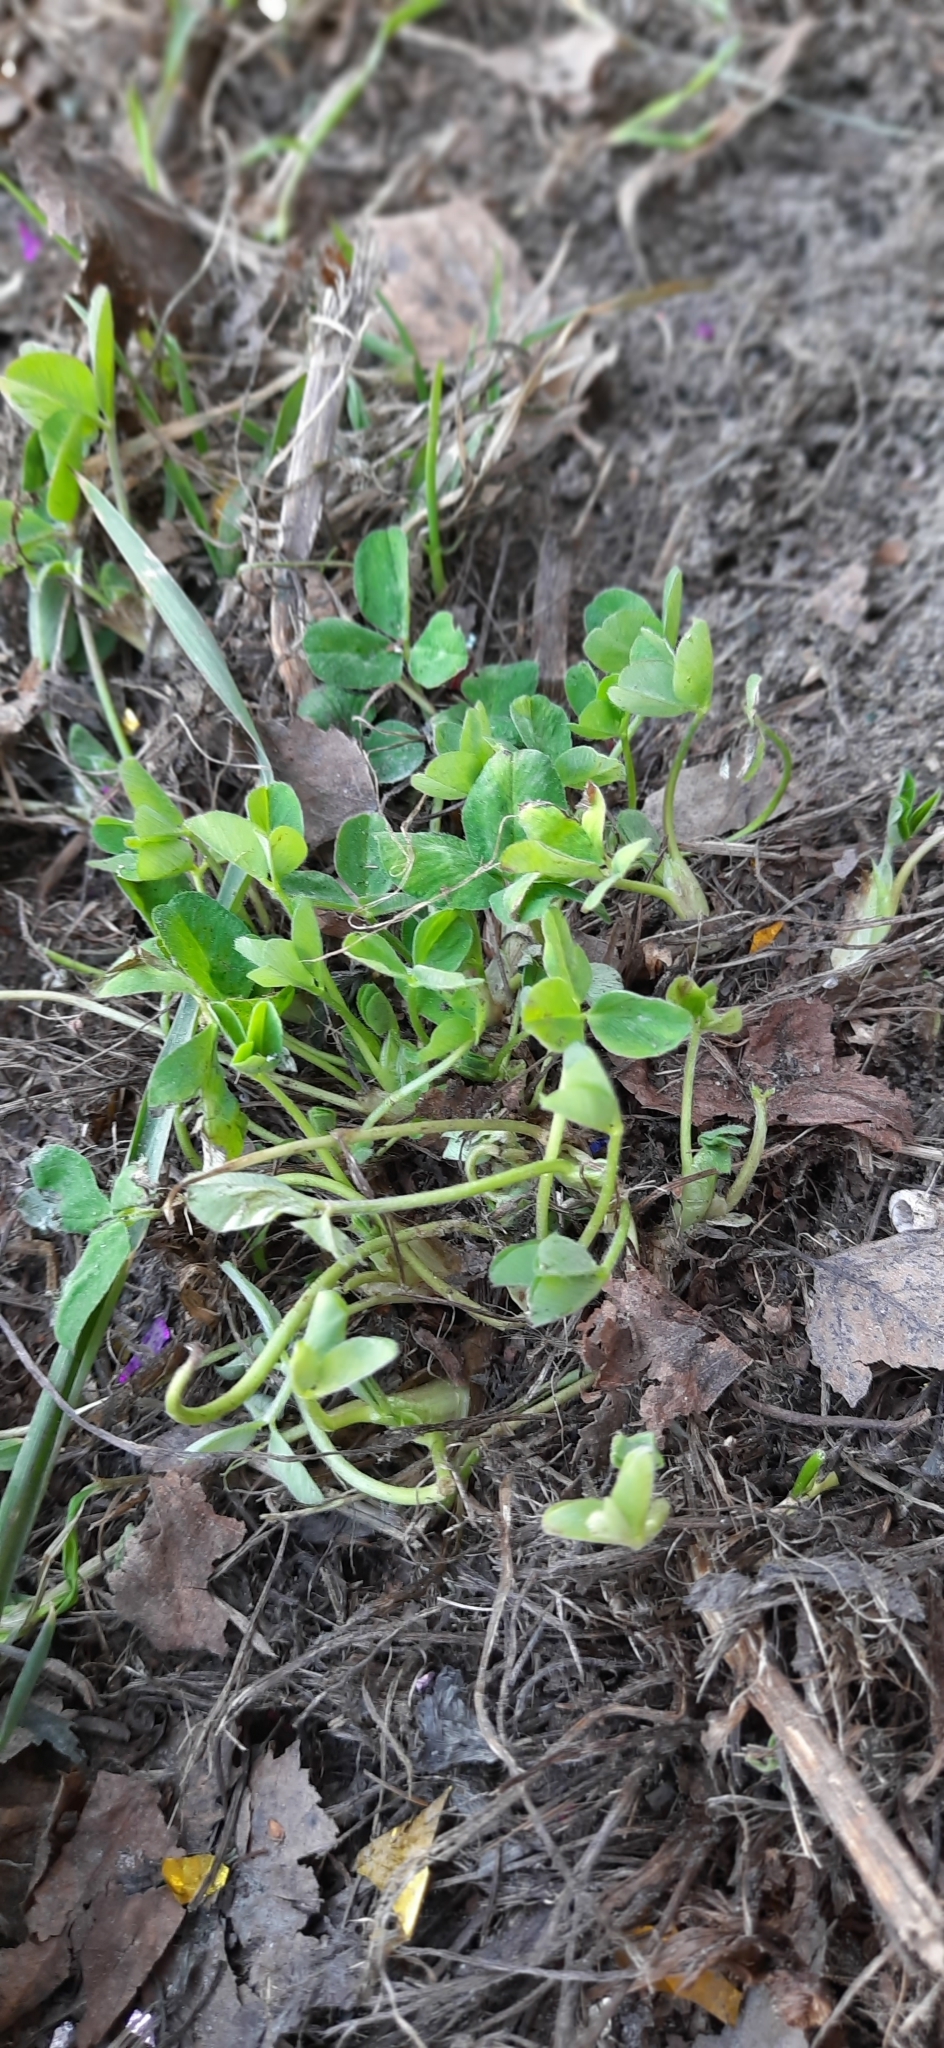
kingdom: Plantae
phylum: Tracheophyta
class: Magnoliopsida
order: Fabales
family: Fabaceae
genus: Trifolium
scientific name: Trifolium pratense
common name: Red clover
